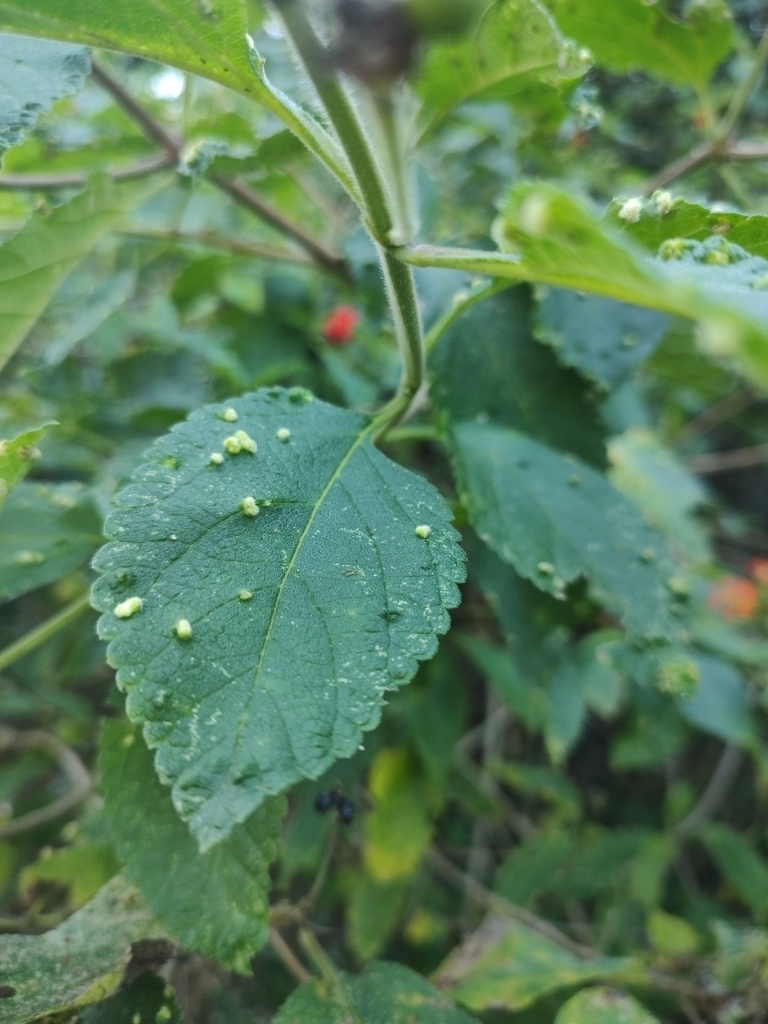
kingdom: Plantae
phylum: Tracheophyta
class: Magnoliopsida
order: Lamiales
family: Verbenaceae
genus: Lantana
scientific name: Lantana camara
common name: Lantana
